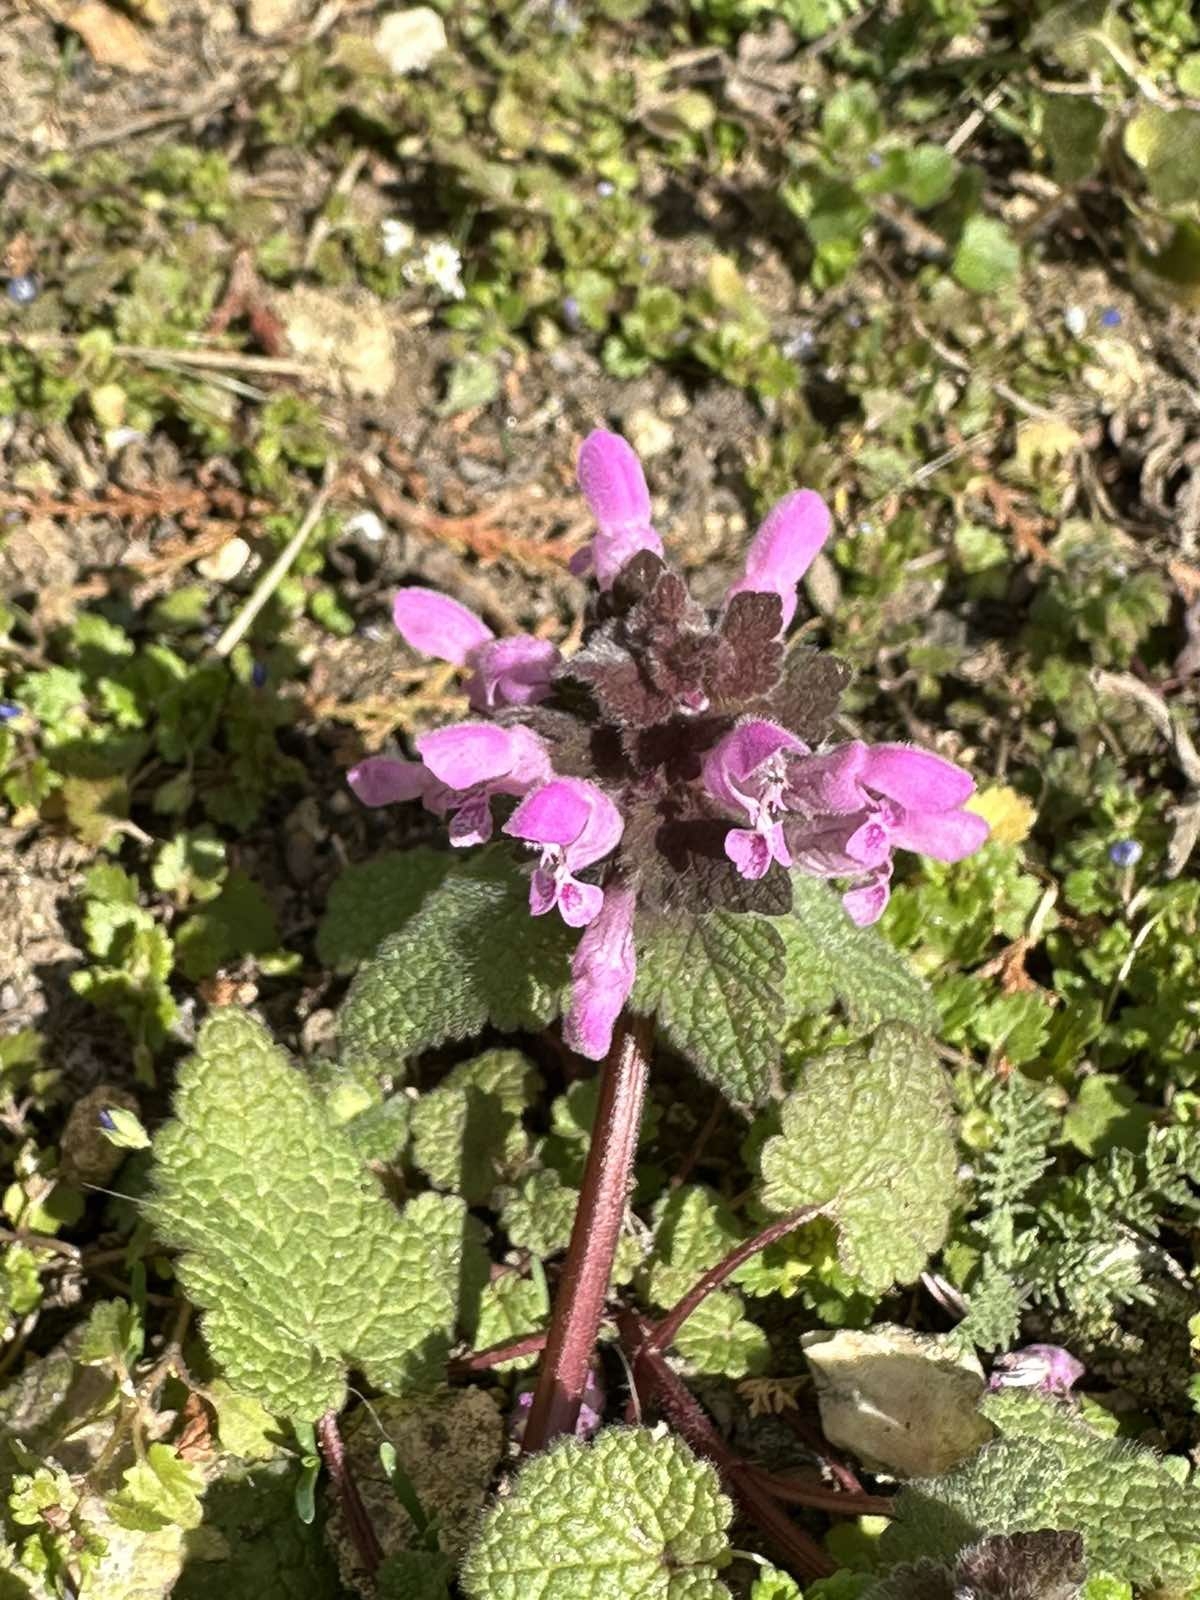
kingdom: Plantae
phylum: Tracheophyta
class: Magnoliopsida
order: Lamiales
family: Lamiaceae
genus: Lamium
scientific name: Lamium purpureum
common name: Red dead-nettle
